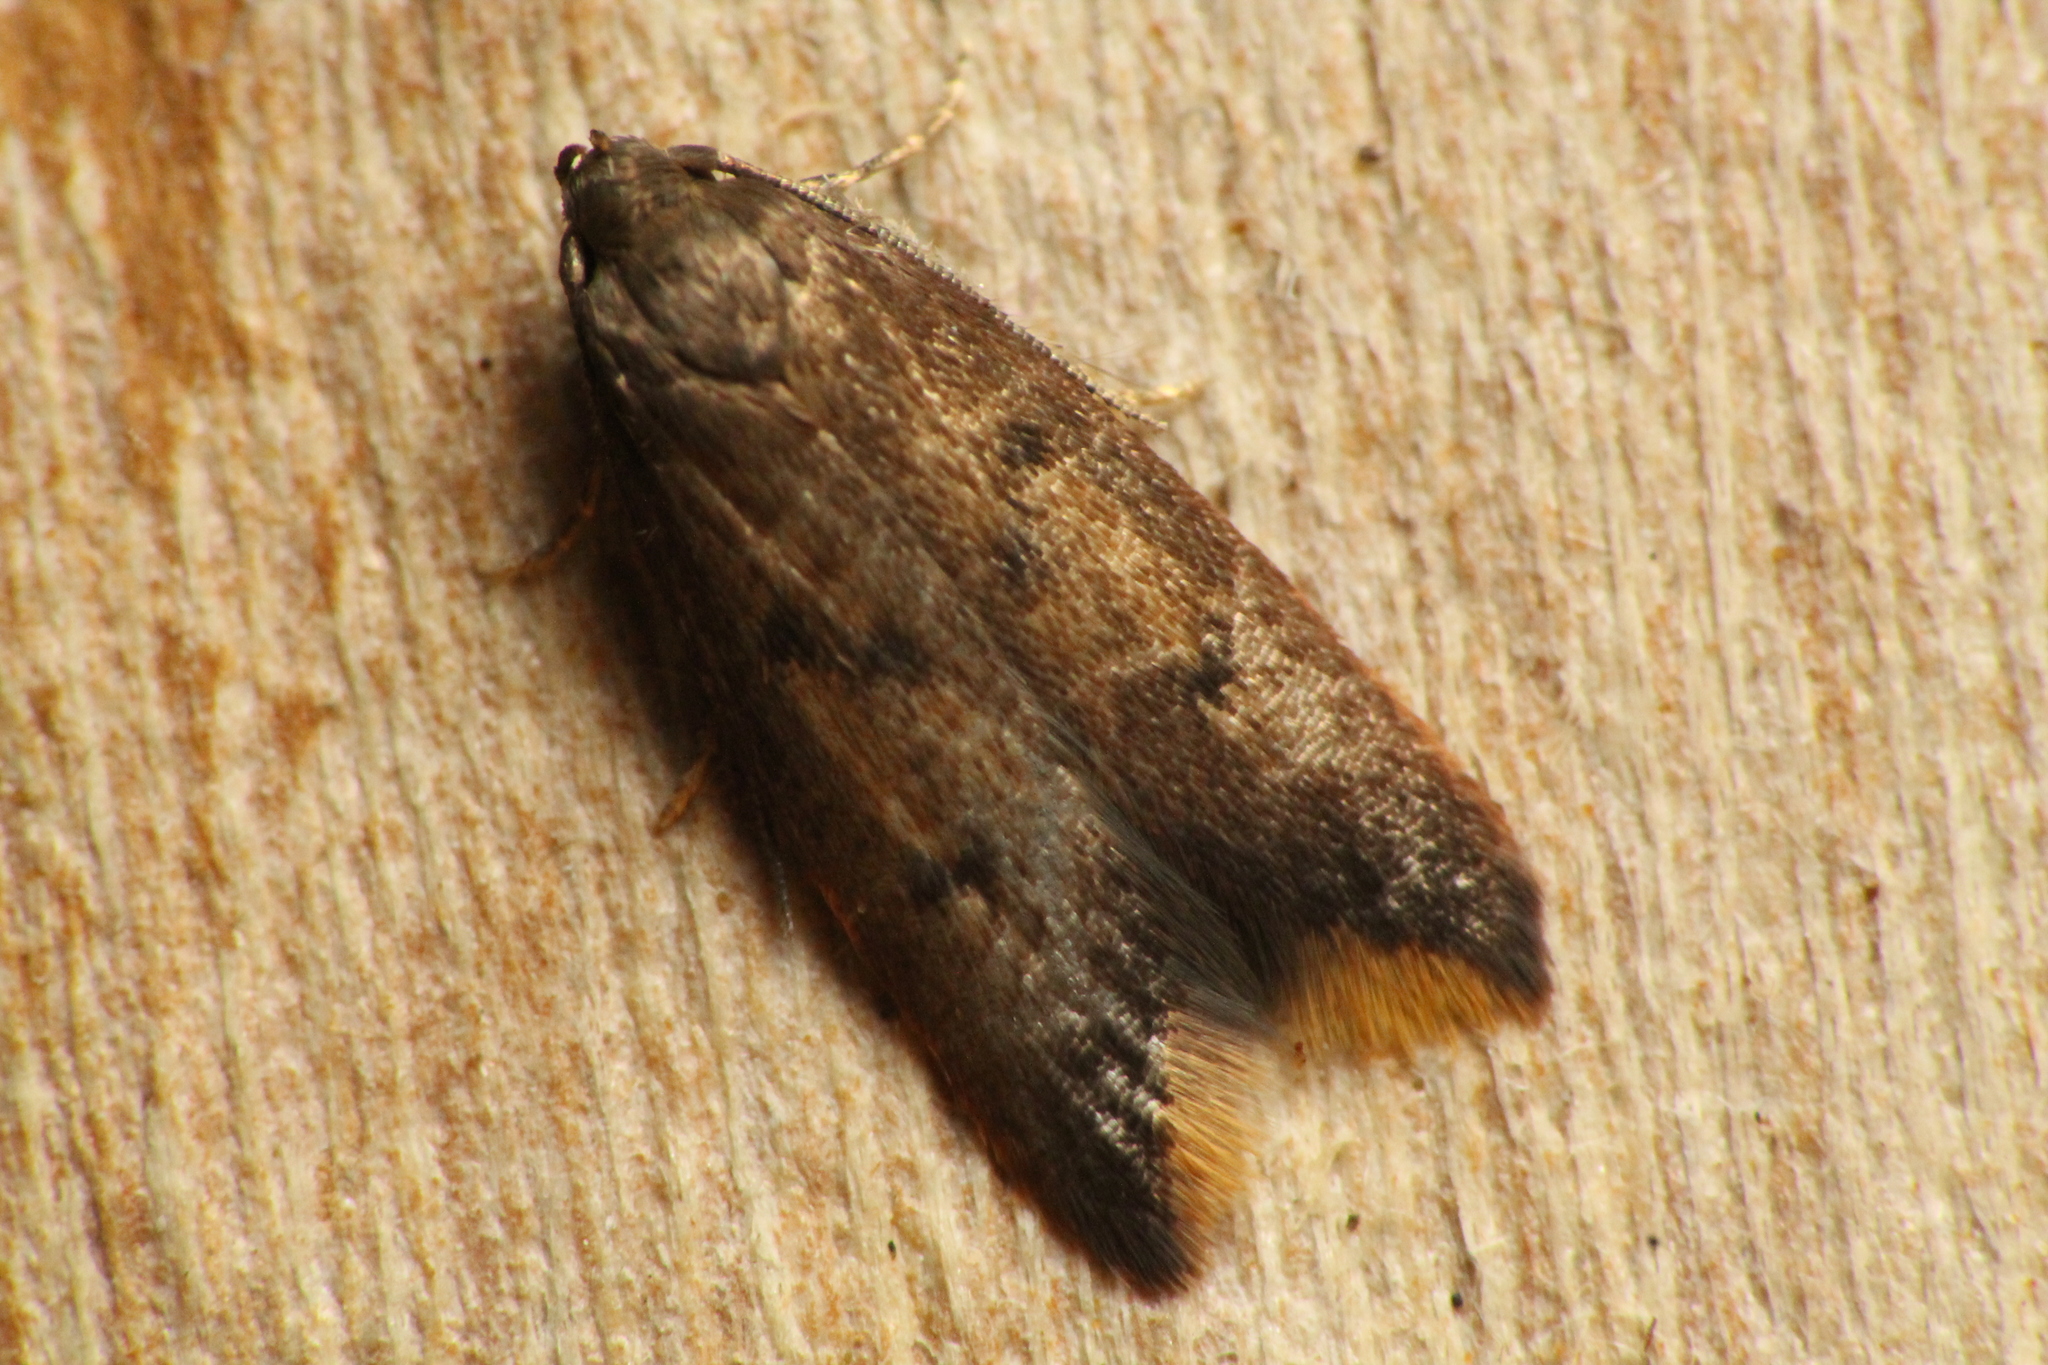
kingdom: Animalia
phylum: Arthropoda
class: Insecta
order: Lepidoptera
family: Oecophoridae
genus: Tachystola
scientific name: Tachystola acroxantha
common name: Ruddy streak
